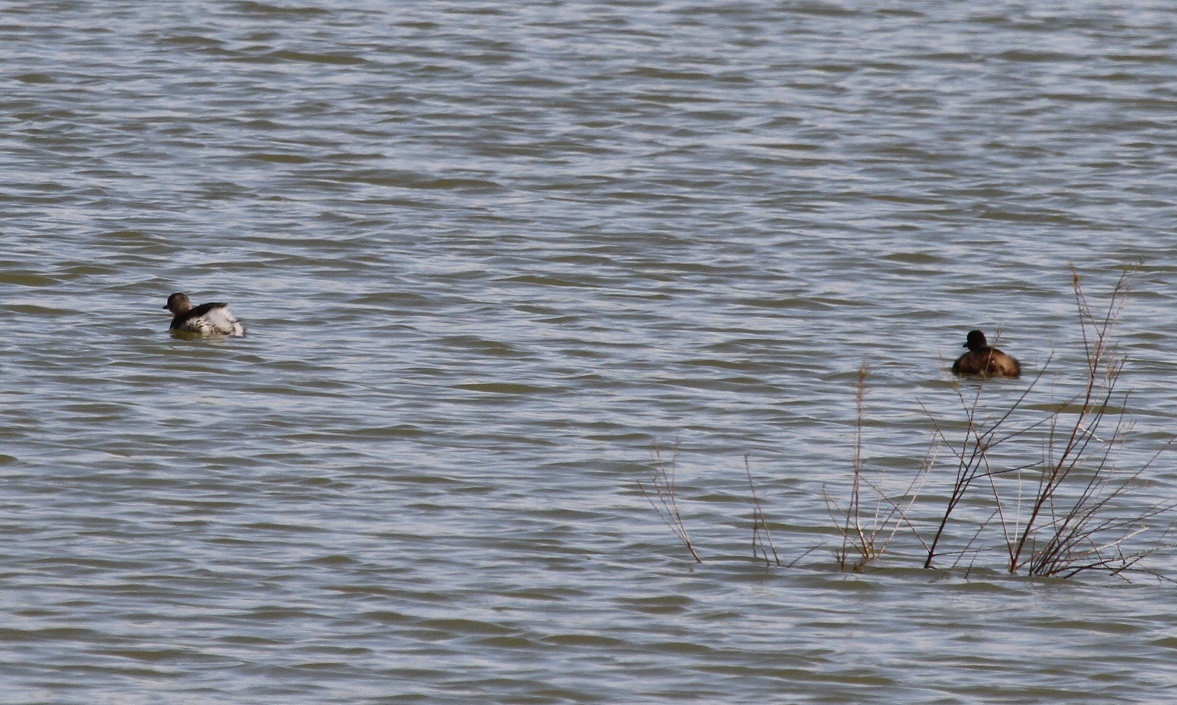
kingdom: Animalia
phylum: Chordata
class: Aves
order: Podicipediformes
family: Podicipedidae
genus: Tachybaptus
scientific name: Tachybaptus ruficollis
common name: Little grebe
